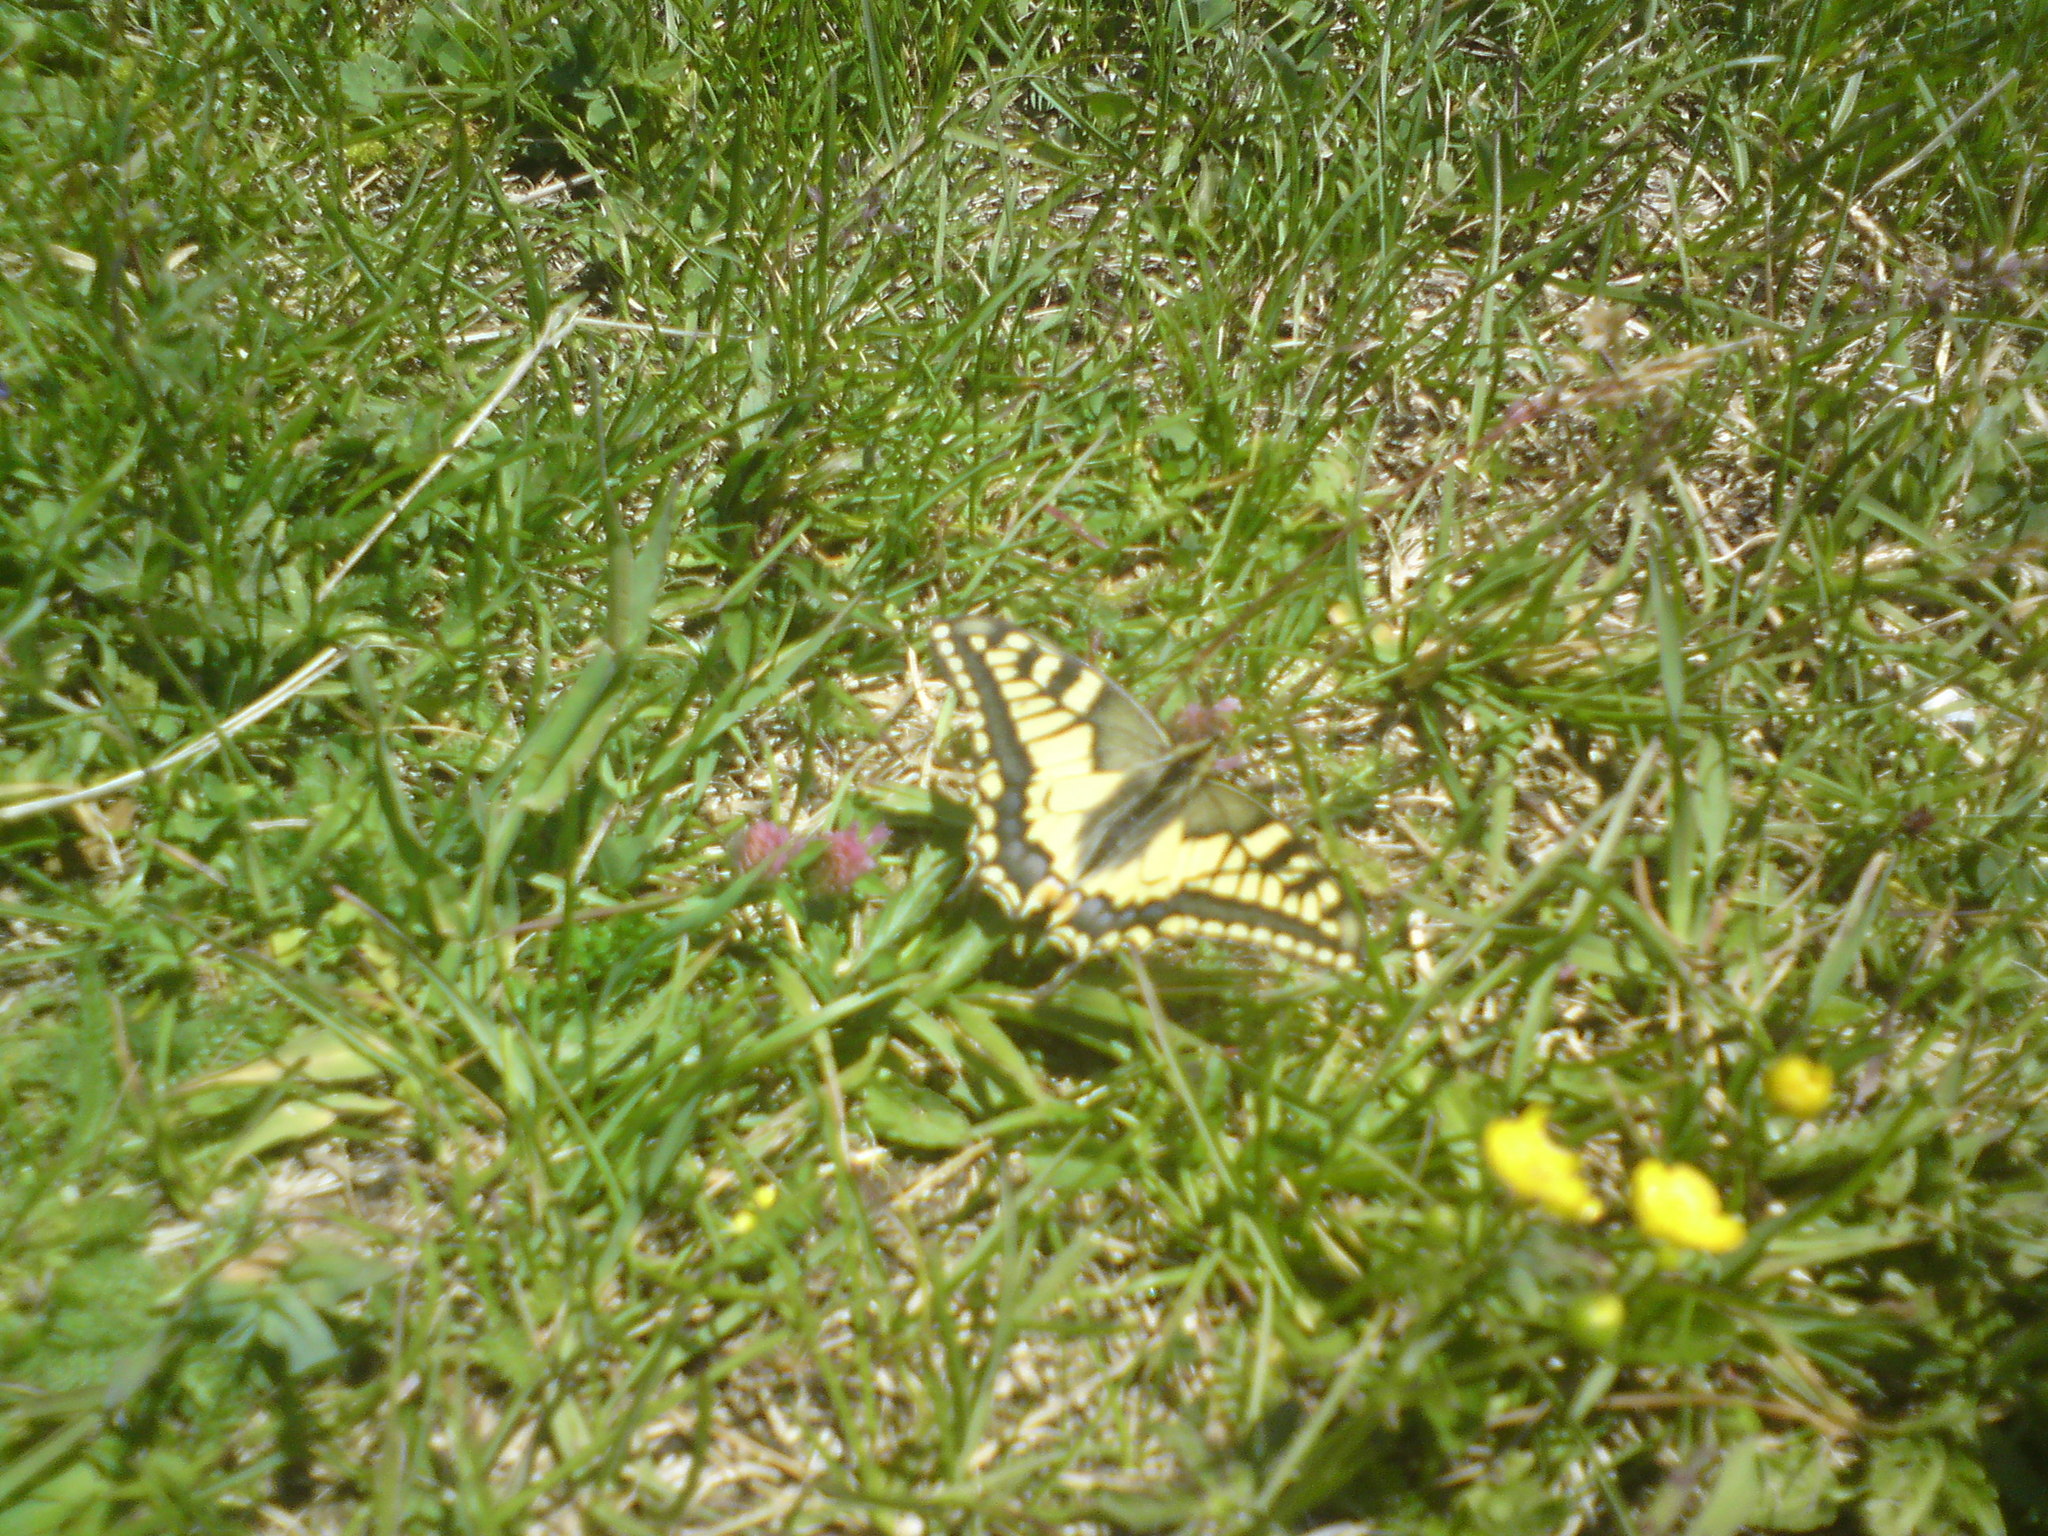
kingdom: Animalia
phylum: Arthropoda
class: Insecta
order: Lepidoptera
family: Papilionidae
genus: Papilio
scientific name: Papilio machaon
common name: Swallowtail
